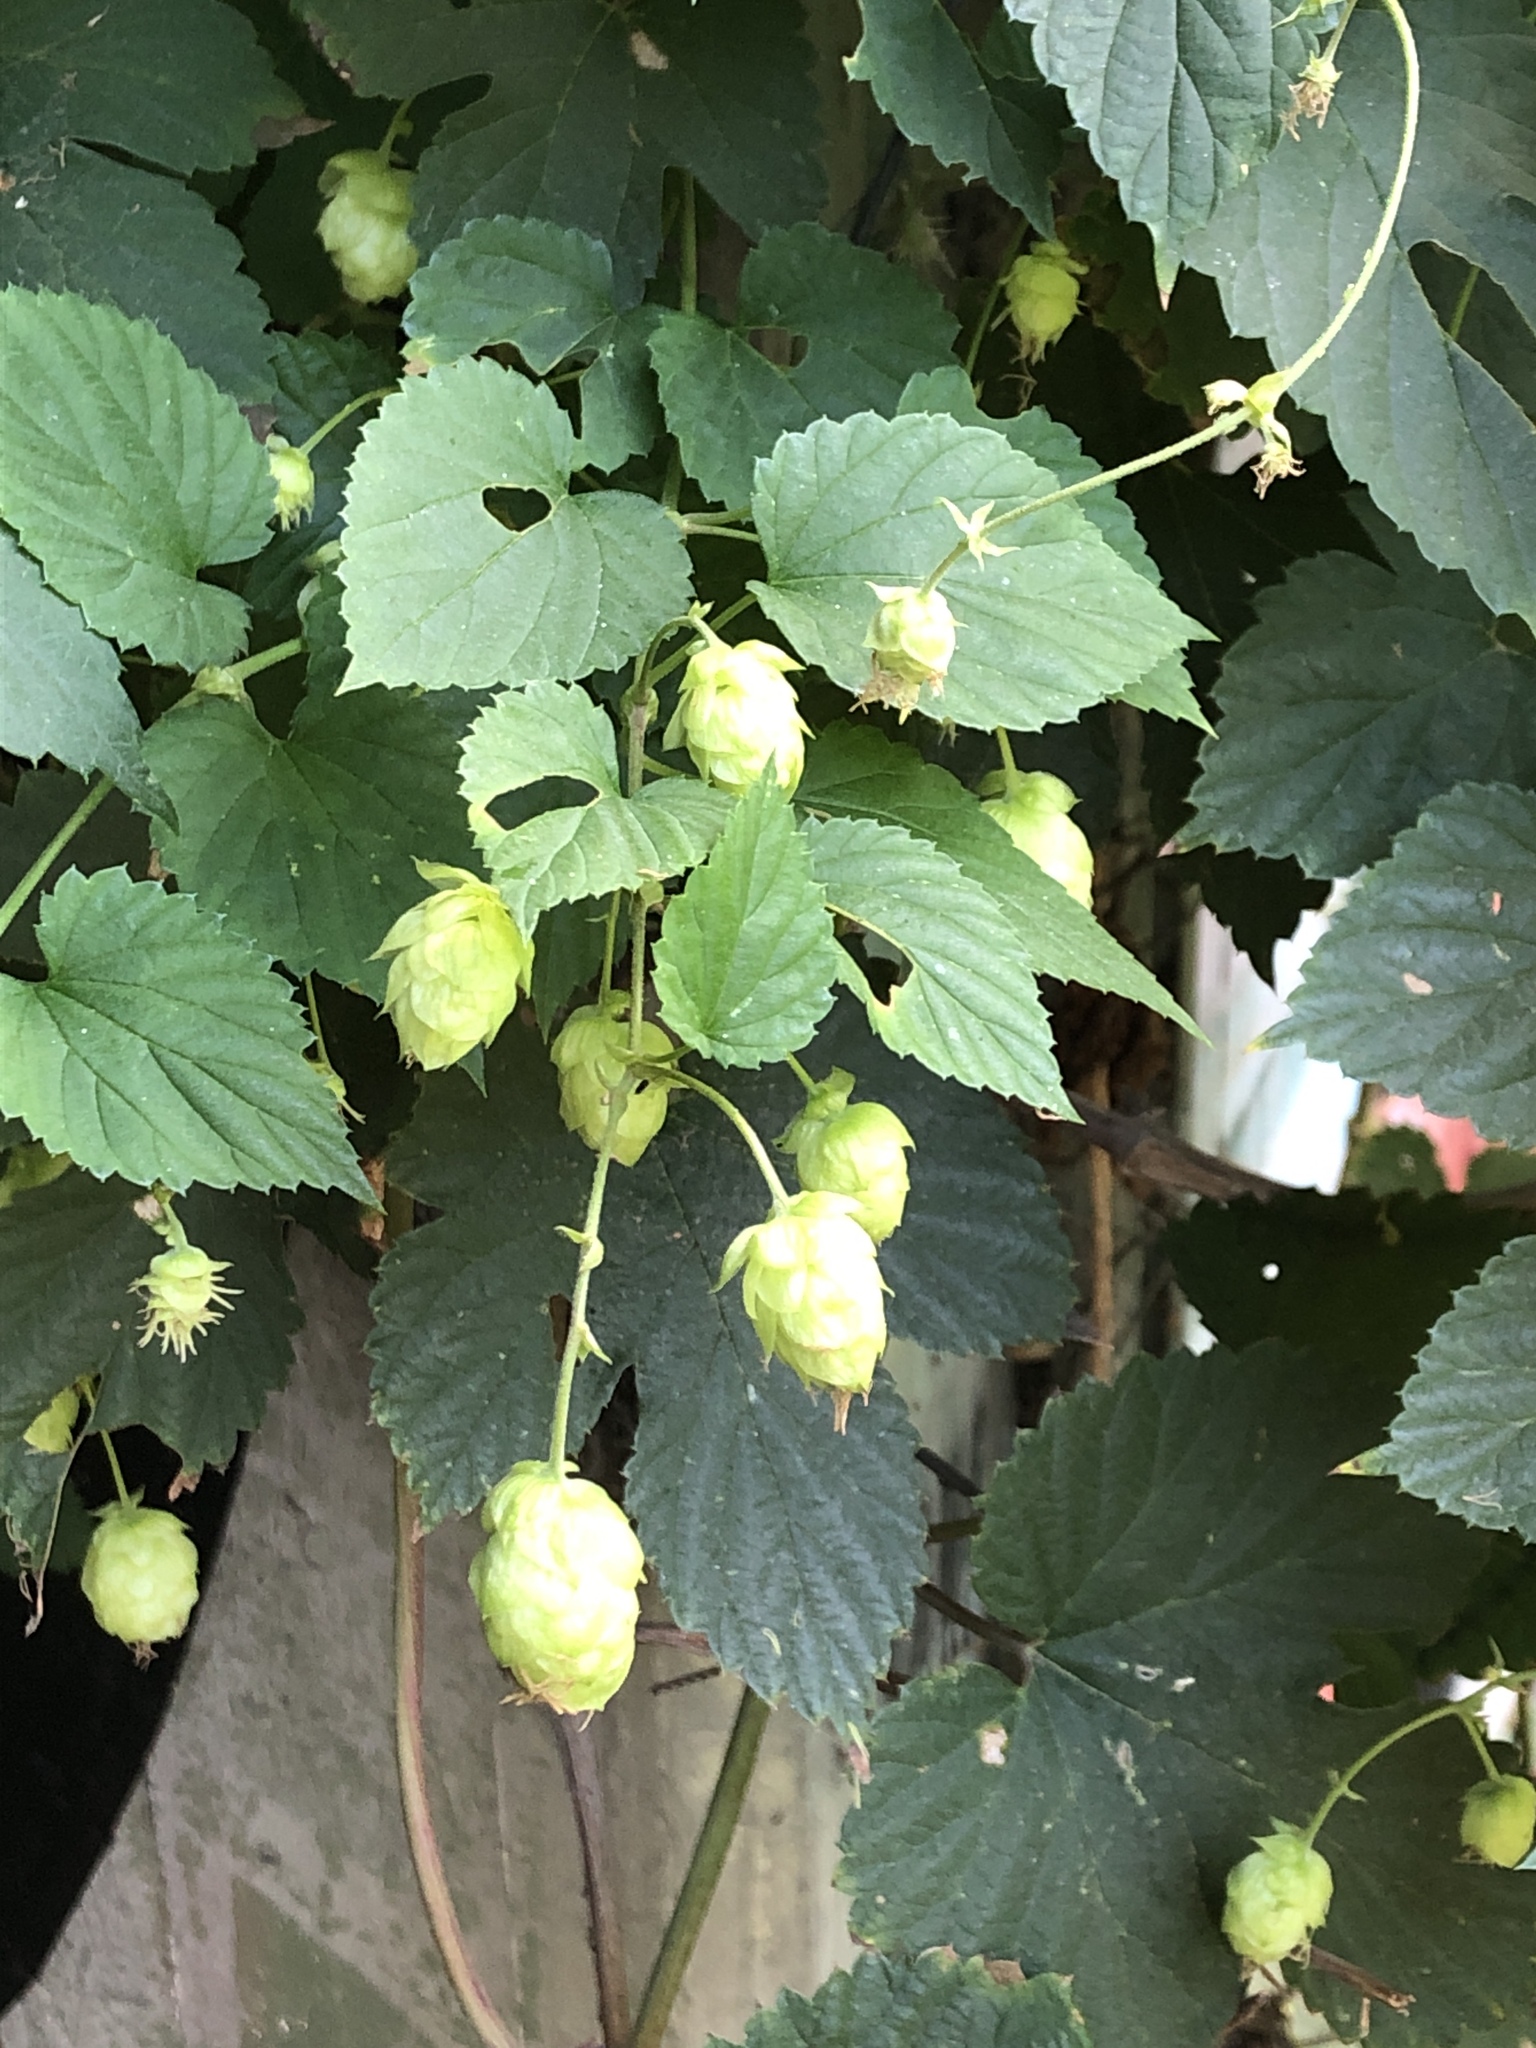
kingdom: Plantae
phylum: Tracheophyta
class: Magnoliopsida
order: Rosales
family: Cannabaceae
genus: Humulus
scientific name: Humulus lupulus
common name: Hop
